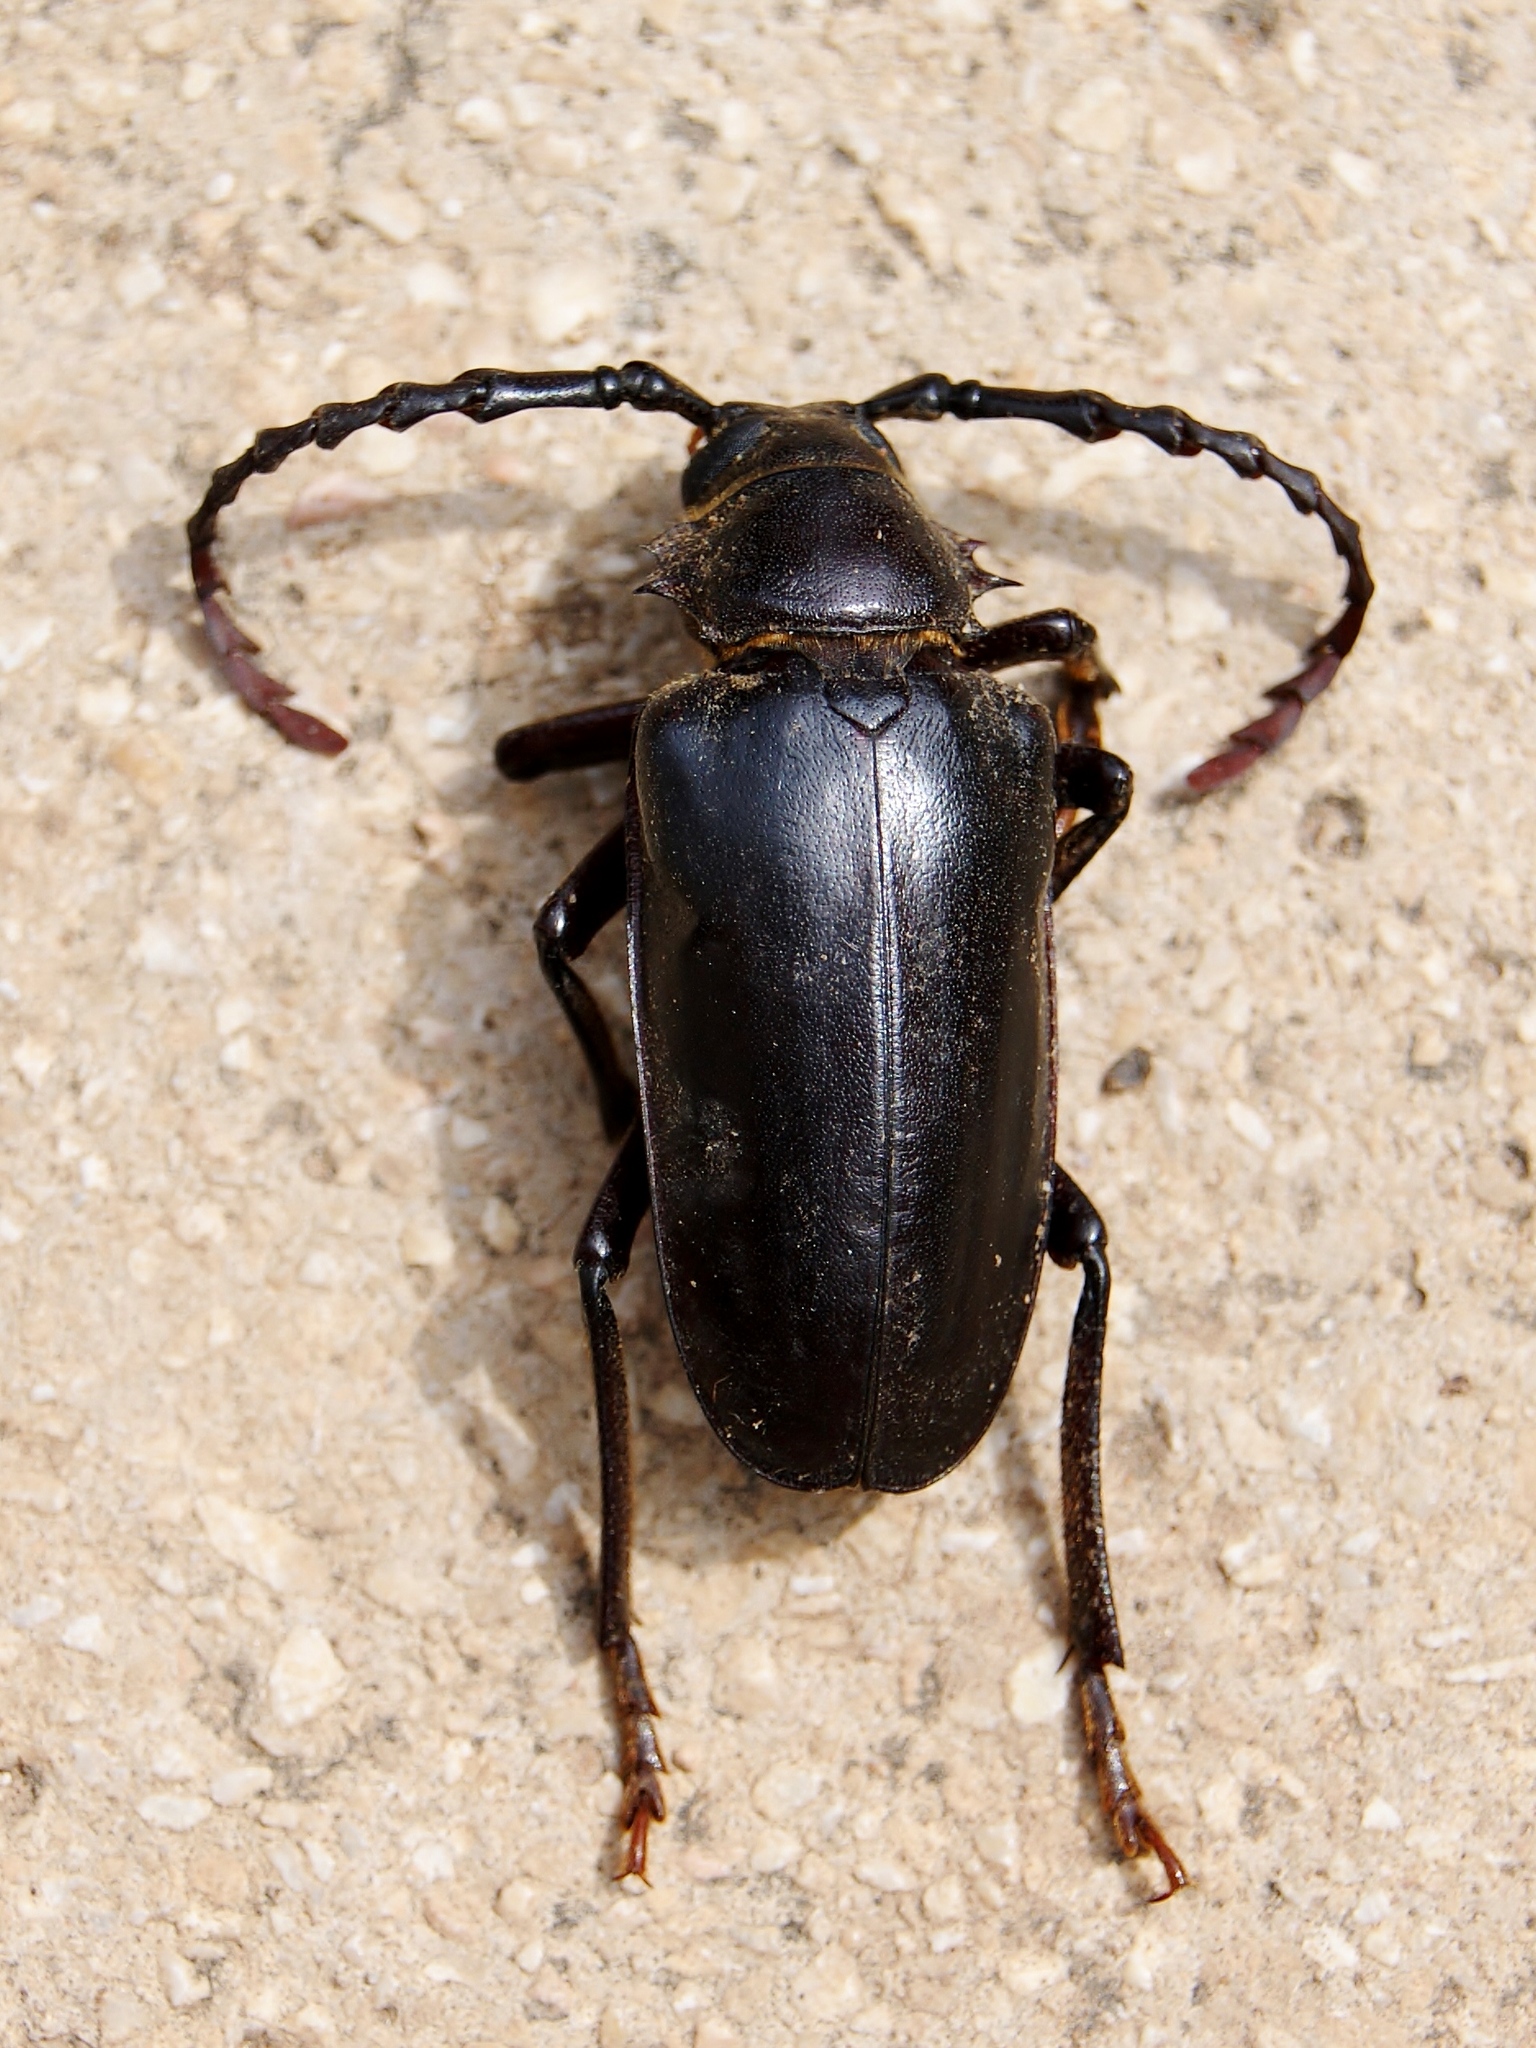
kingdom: Animalia
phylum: Arthropoda
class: Insecta
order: Coleoptera
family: Cerambycidae
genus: Mesoprionus
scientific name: Mesoprionus besikanus
